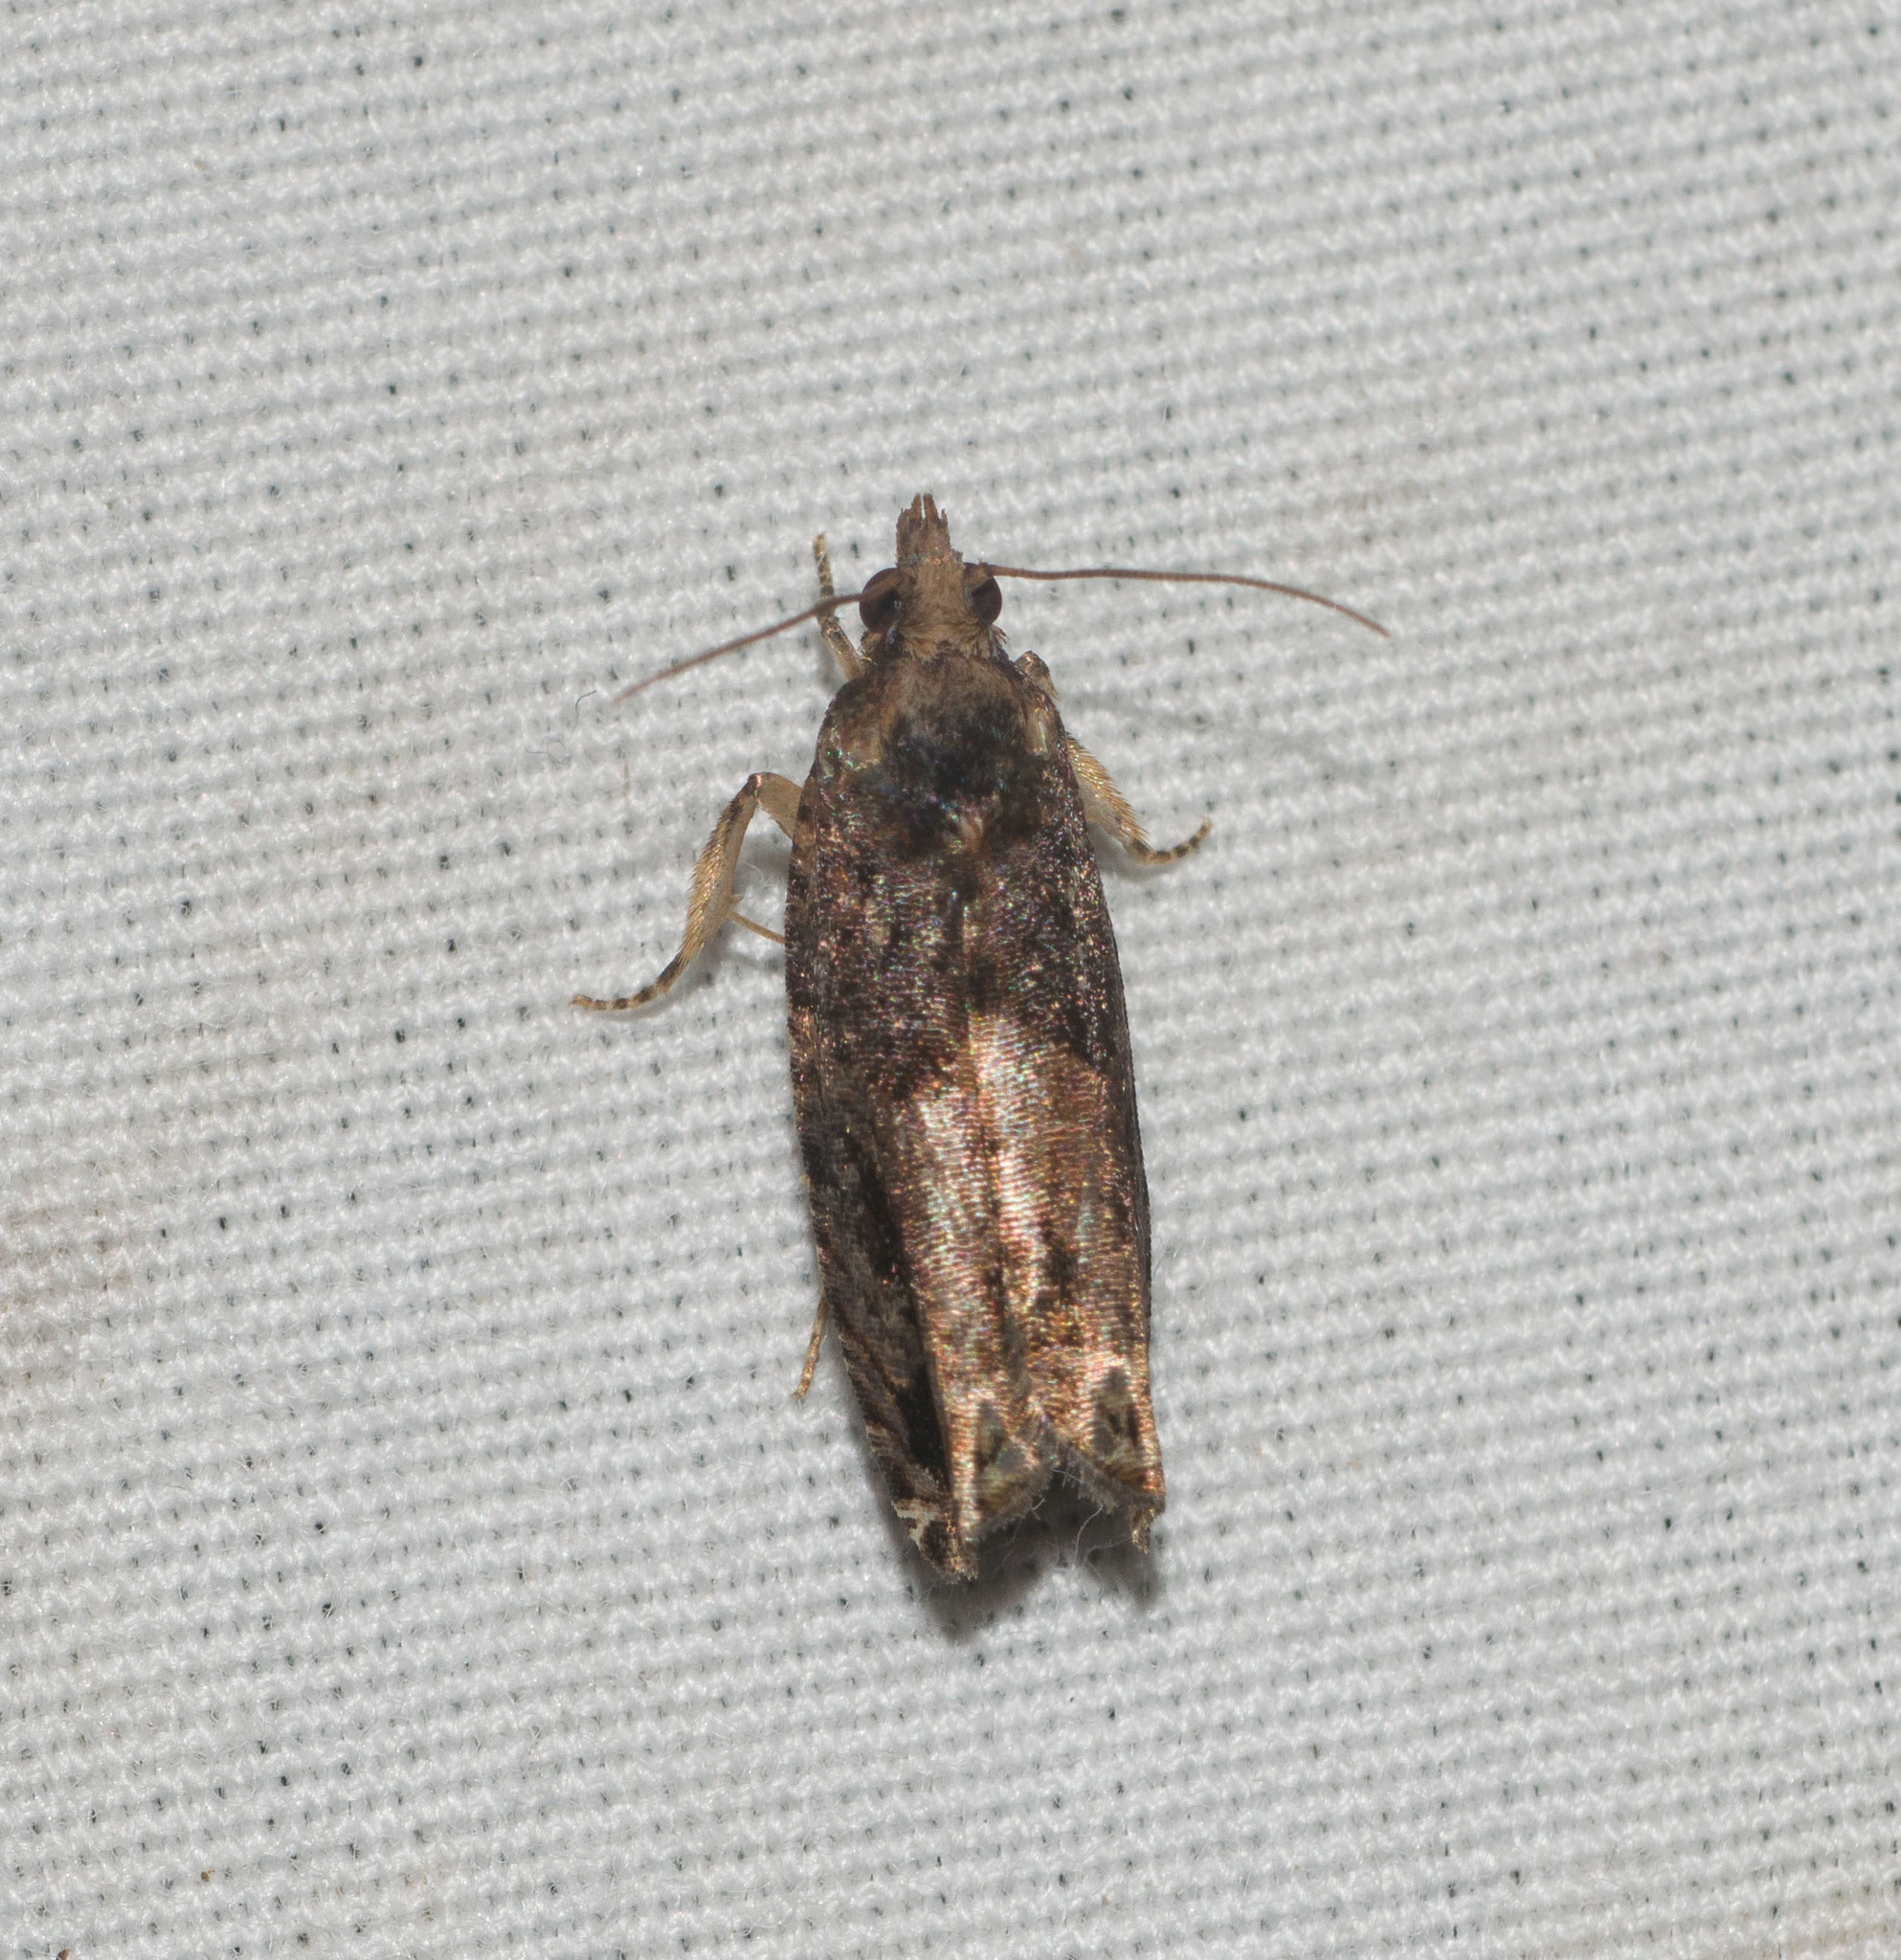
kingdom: Animalia
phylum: Arthropoda
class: Insecta
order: Lepidoptera
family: Tortricidae
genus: Crocidosema
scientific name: Crocidosema marcidellum
